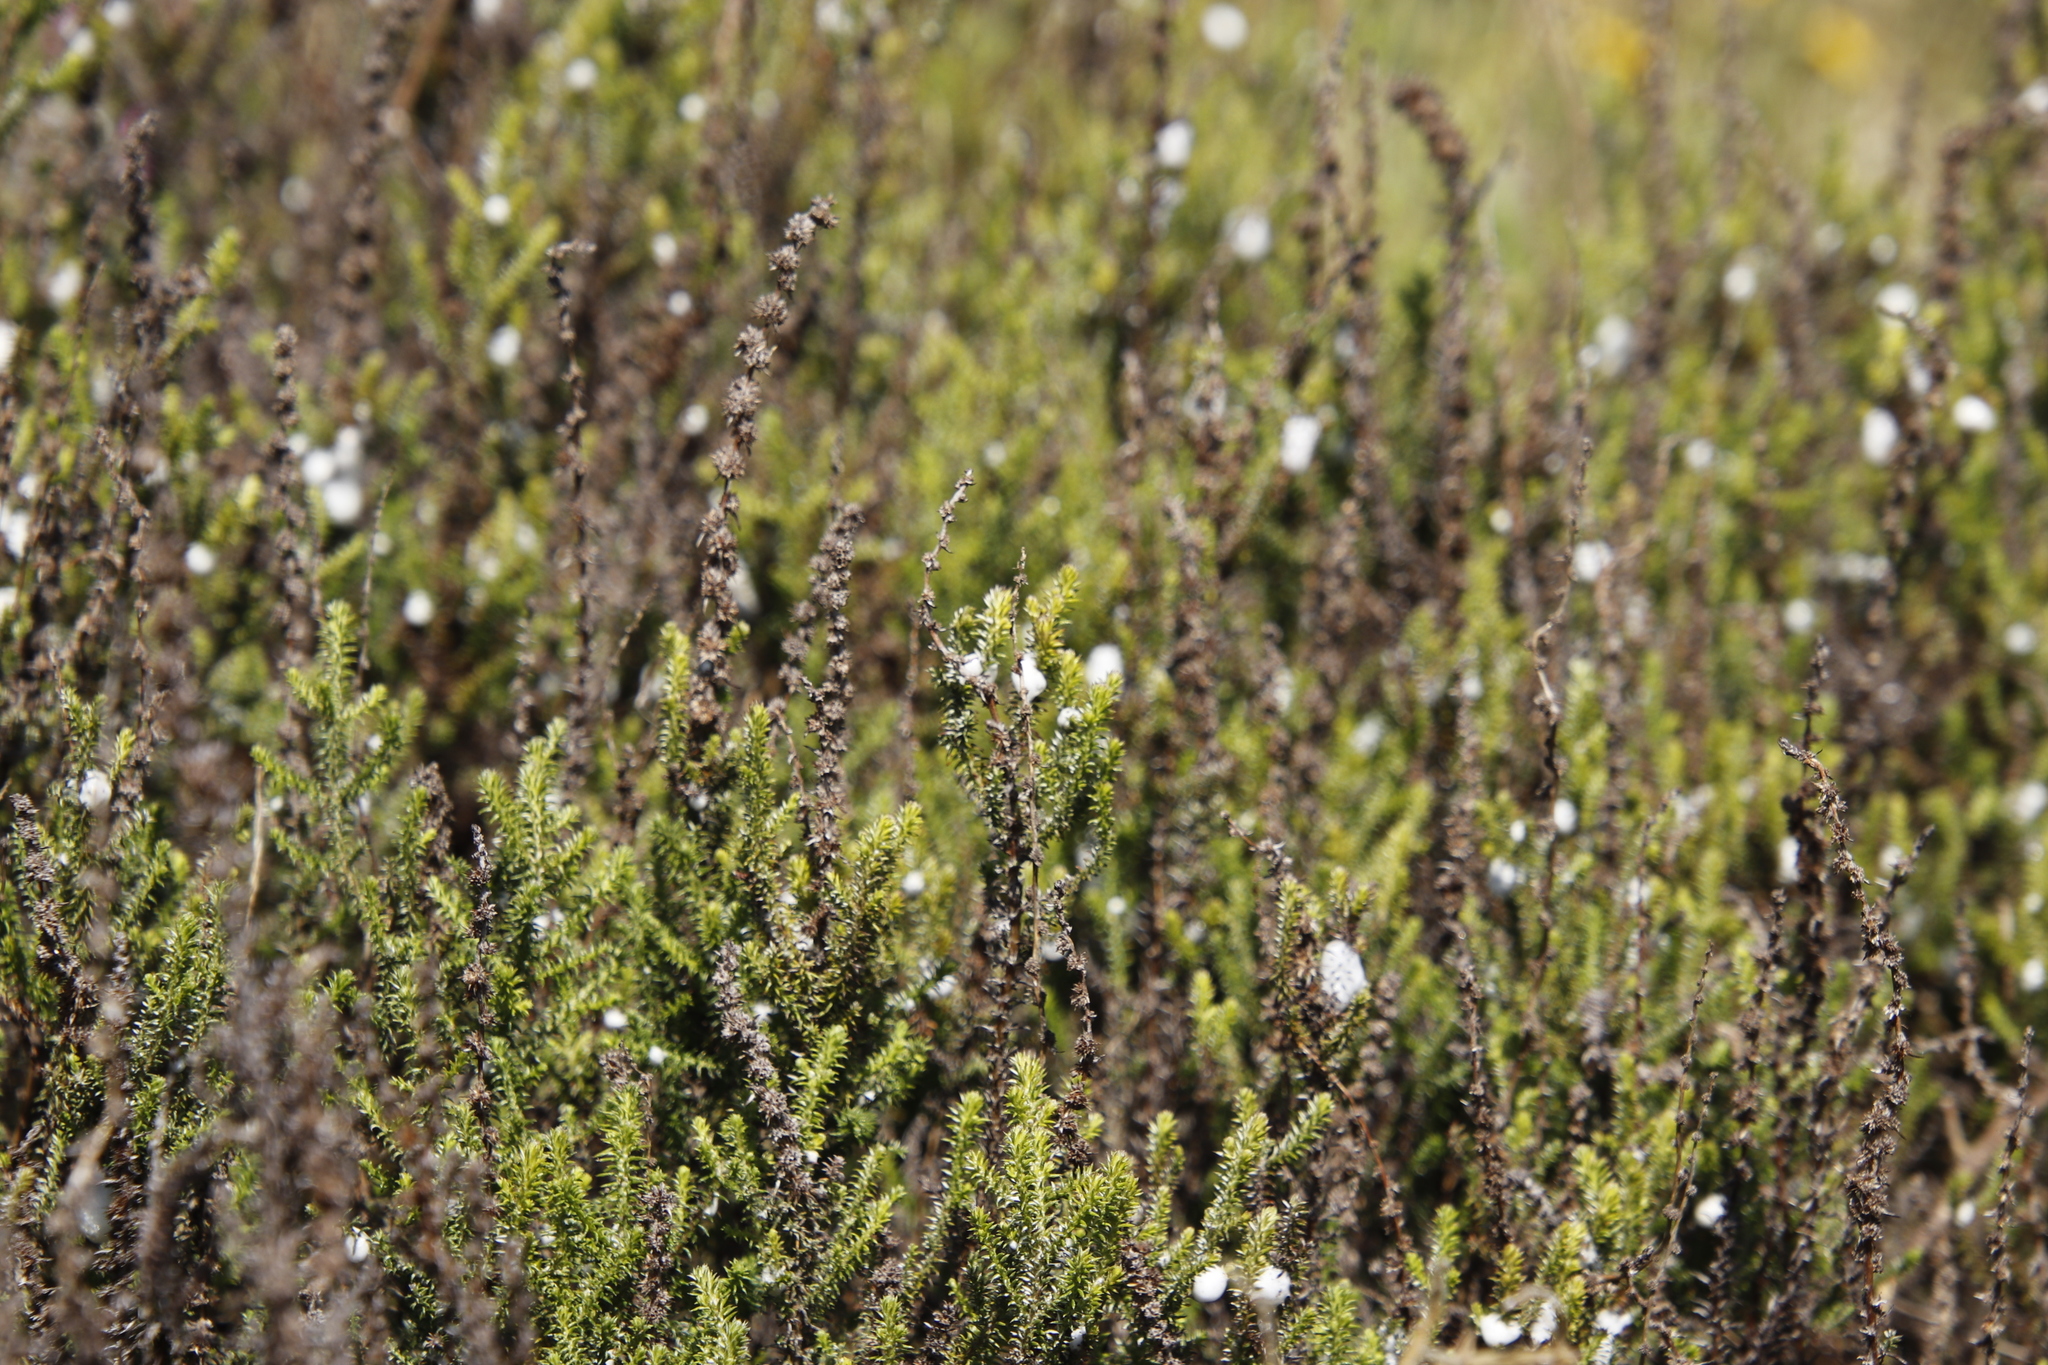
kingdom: Plantae
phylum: Tracheophyta
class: Magnoliopsida
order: Asterales
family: Asteraceae
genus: Seriphium
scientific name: Seriphium cinereum
